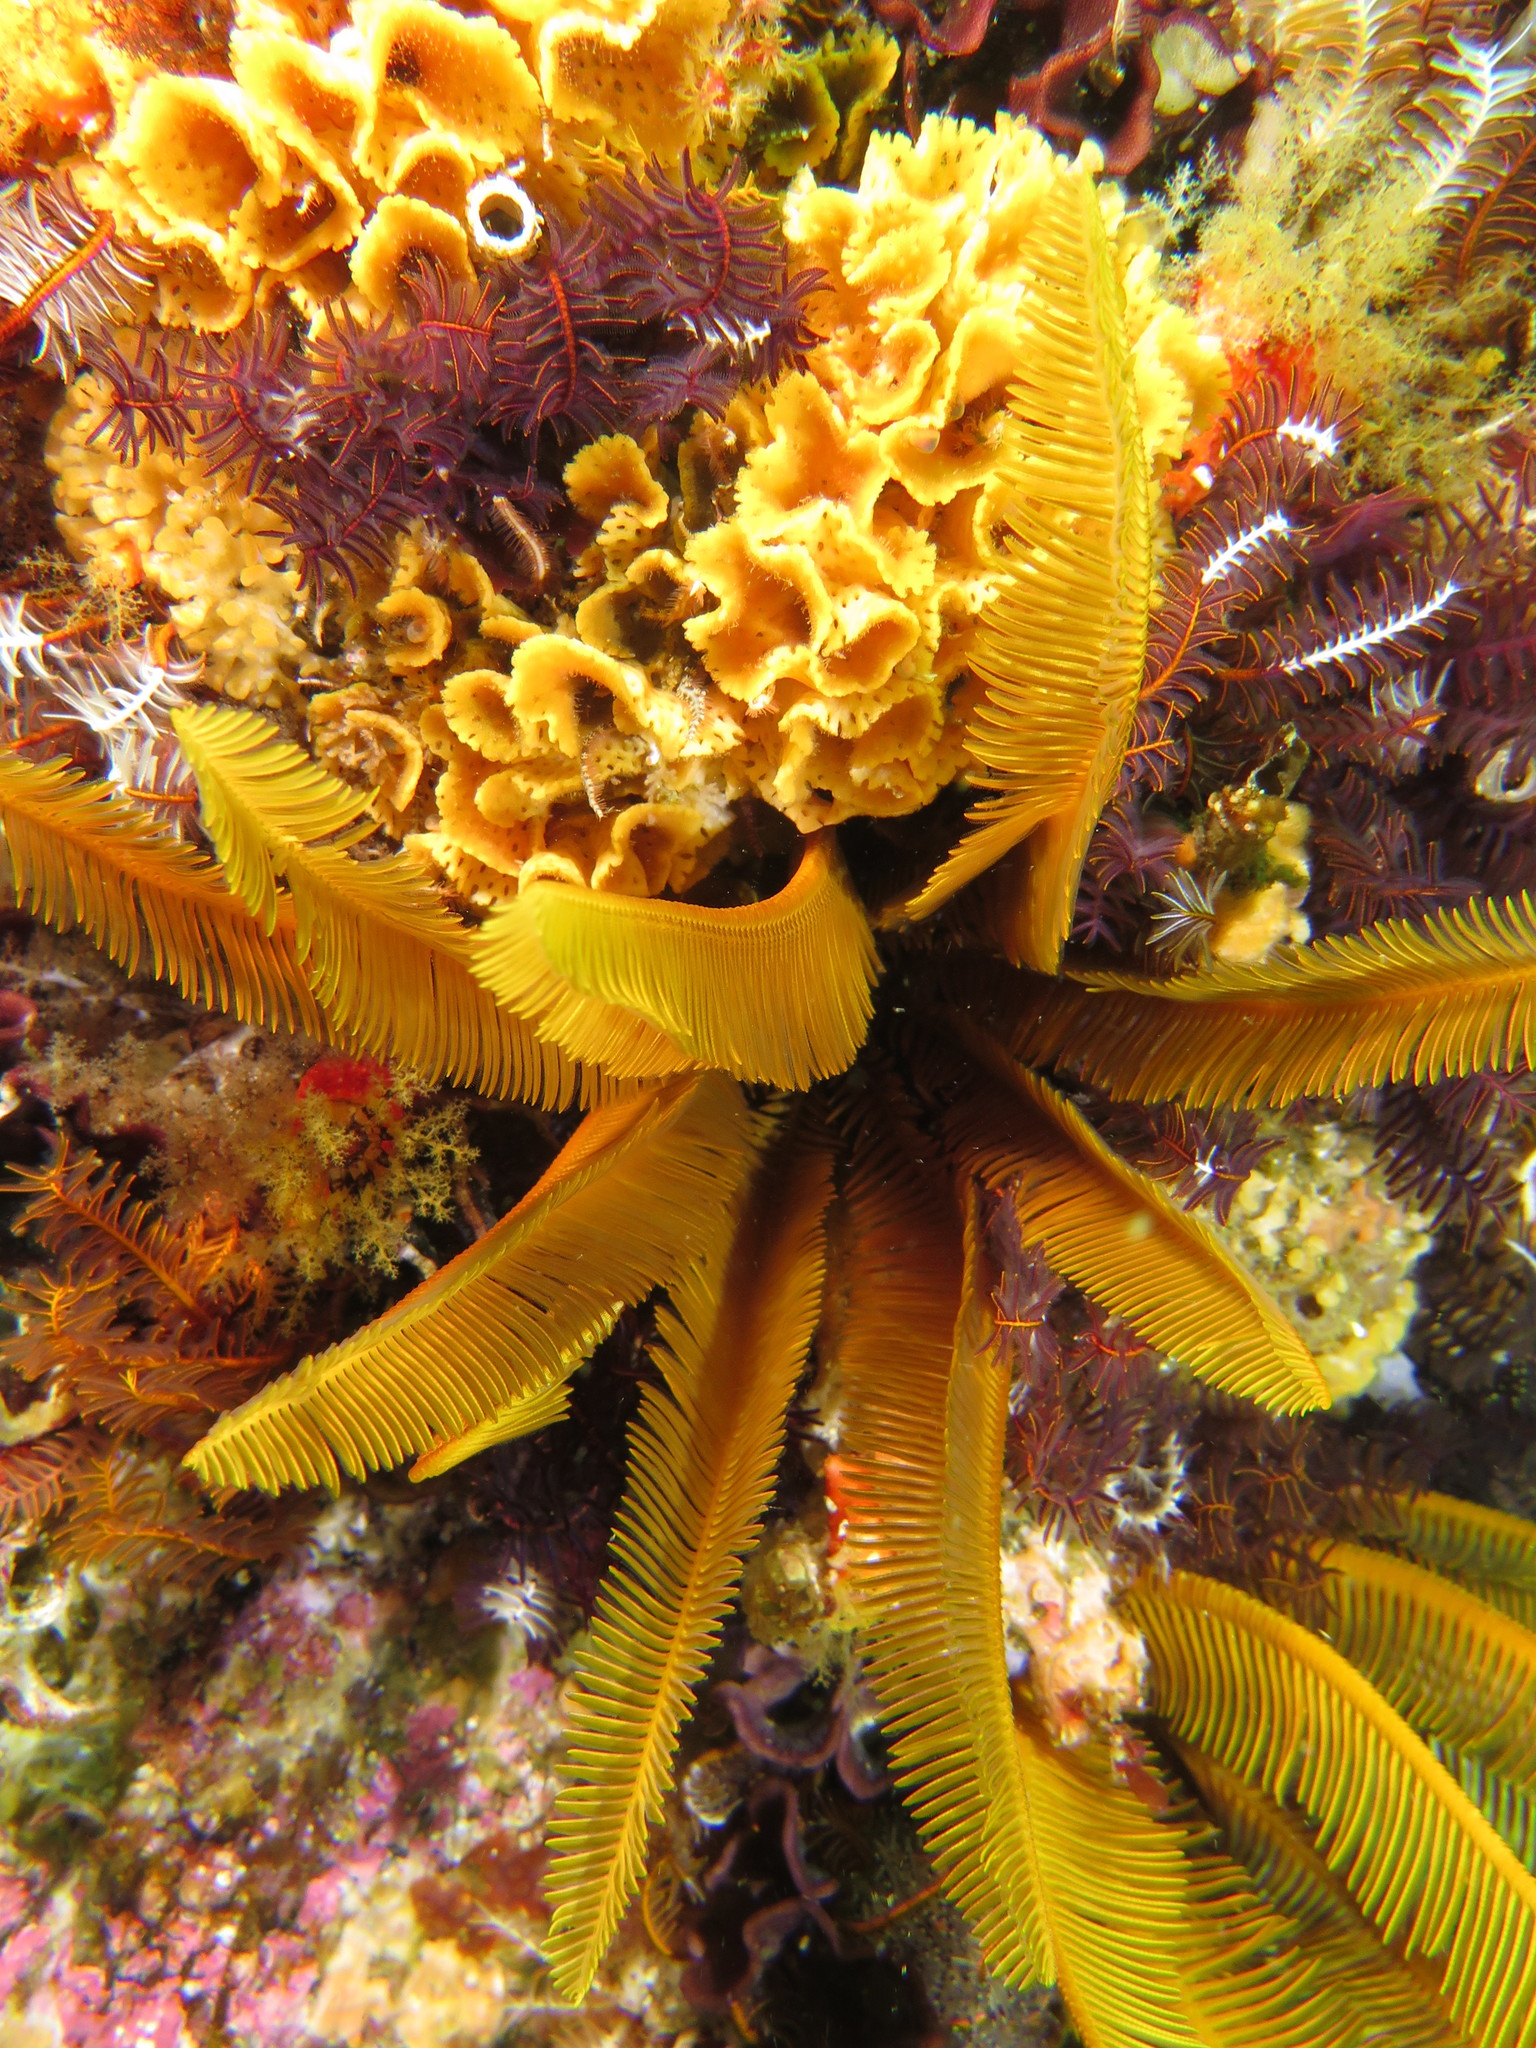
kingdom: Animalia
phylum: Echinodermata
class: Crinoidea
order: Comatulida
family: Tropiometridae
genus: Tropiometra
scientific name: Tropiometra carinata
